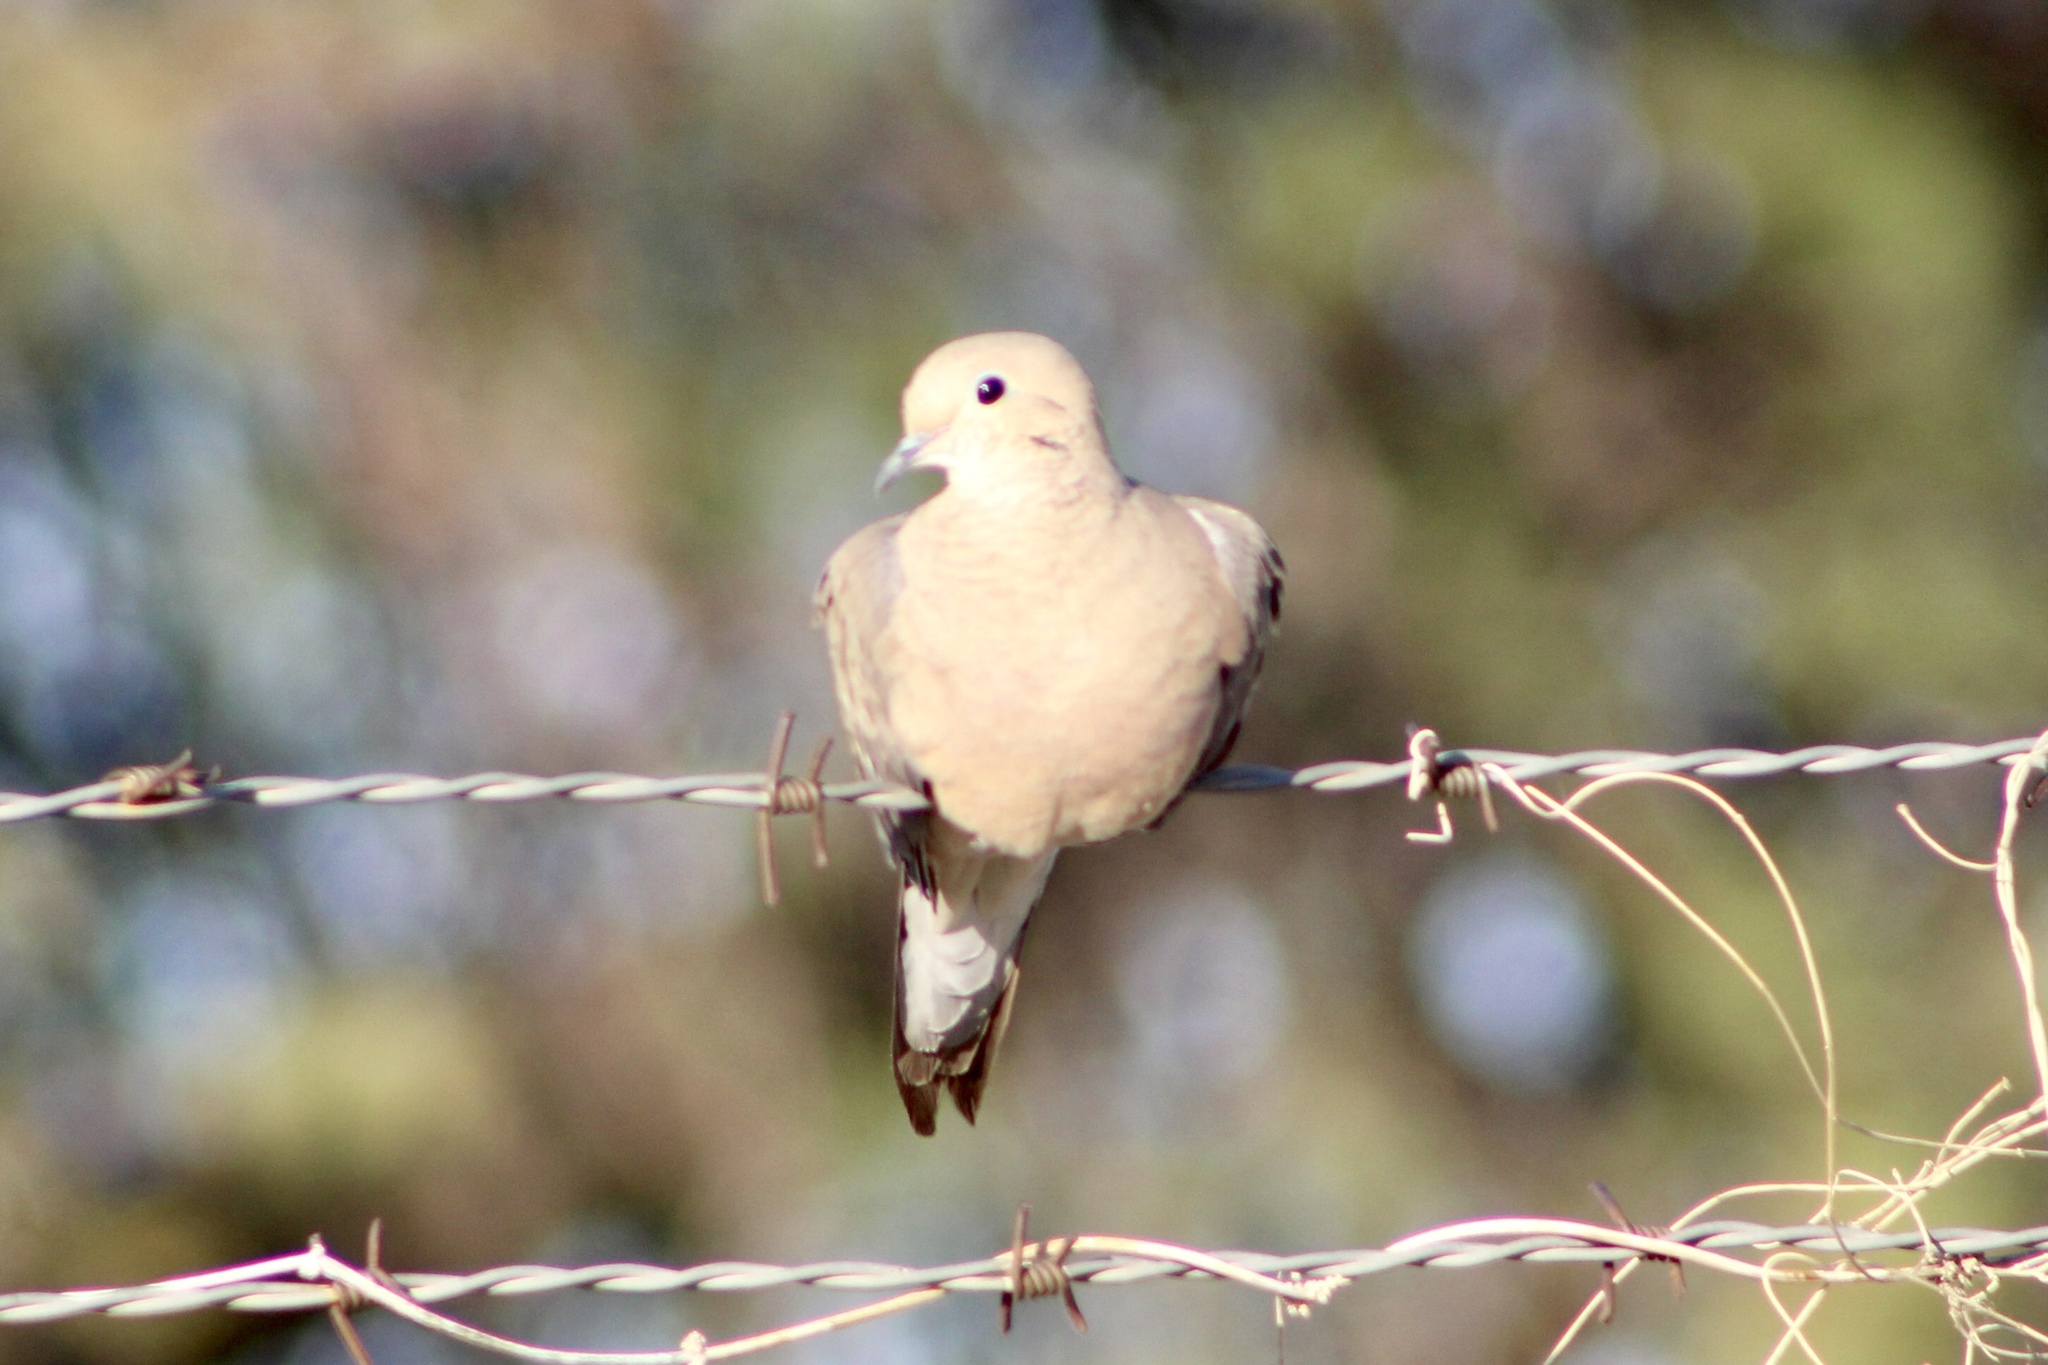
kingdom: Animalia
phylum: Chordata
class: Aves
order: Columbiformes
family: Columbidae
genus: Zenaida
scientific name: Zenaida macroura
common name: Mourning dove
